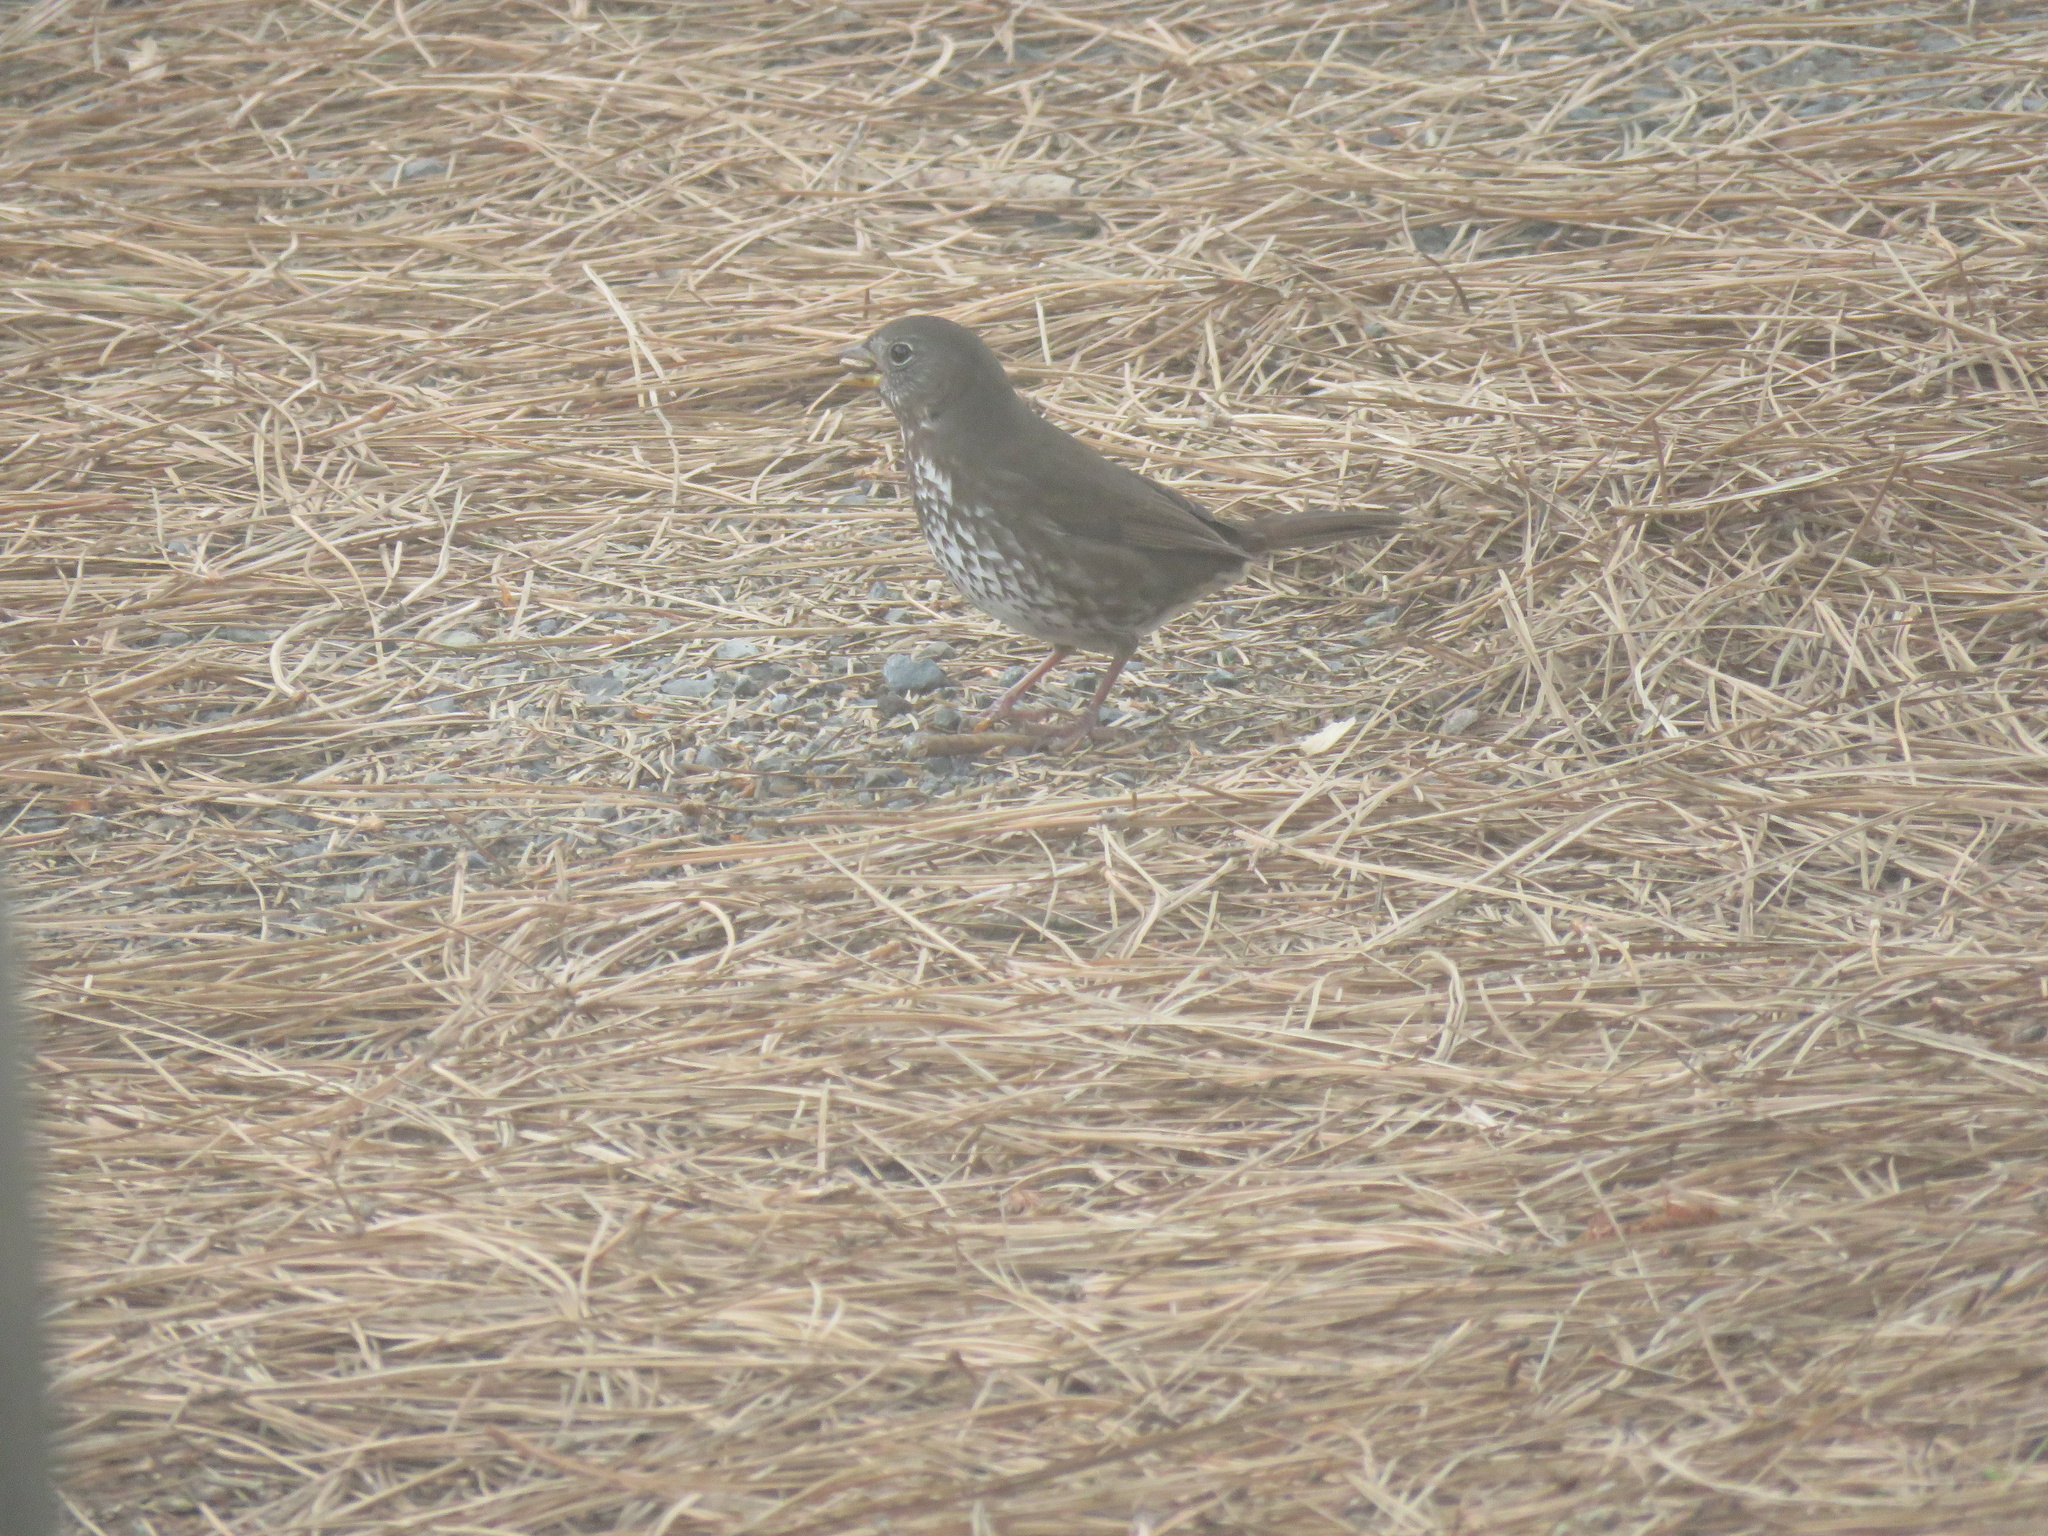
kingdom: Animalia
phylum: Chordata
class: Aves
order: Passeriformes
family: Passerellidae
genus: Passerella
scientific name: Passerella iliaca
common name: Fox sparrow
